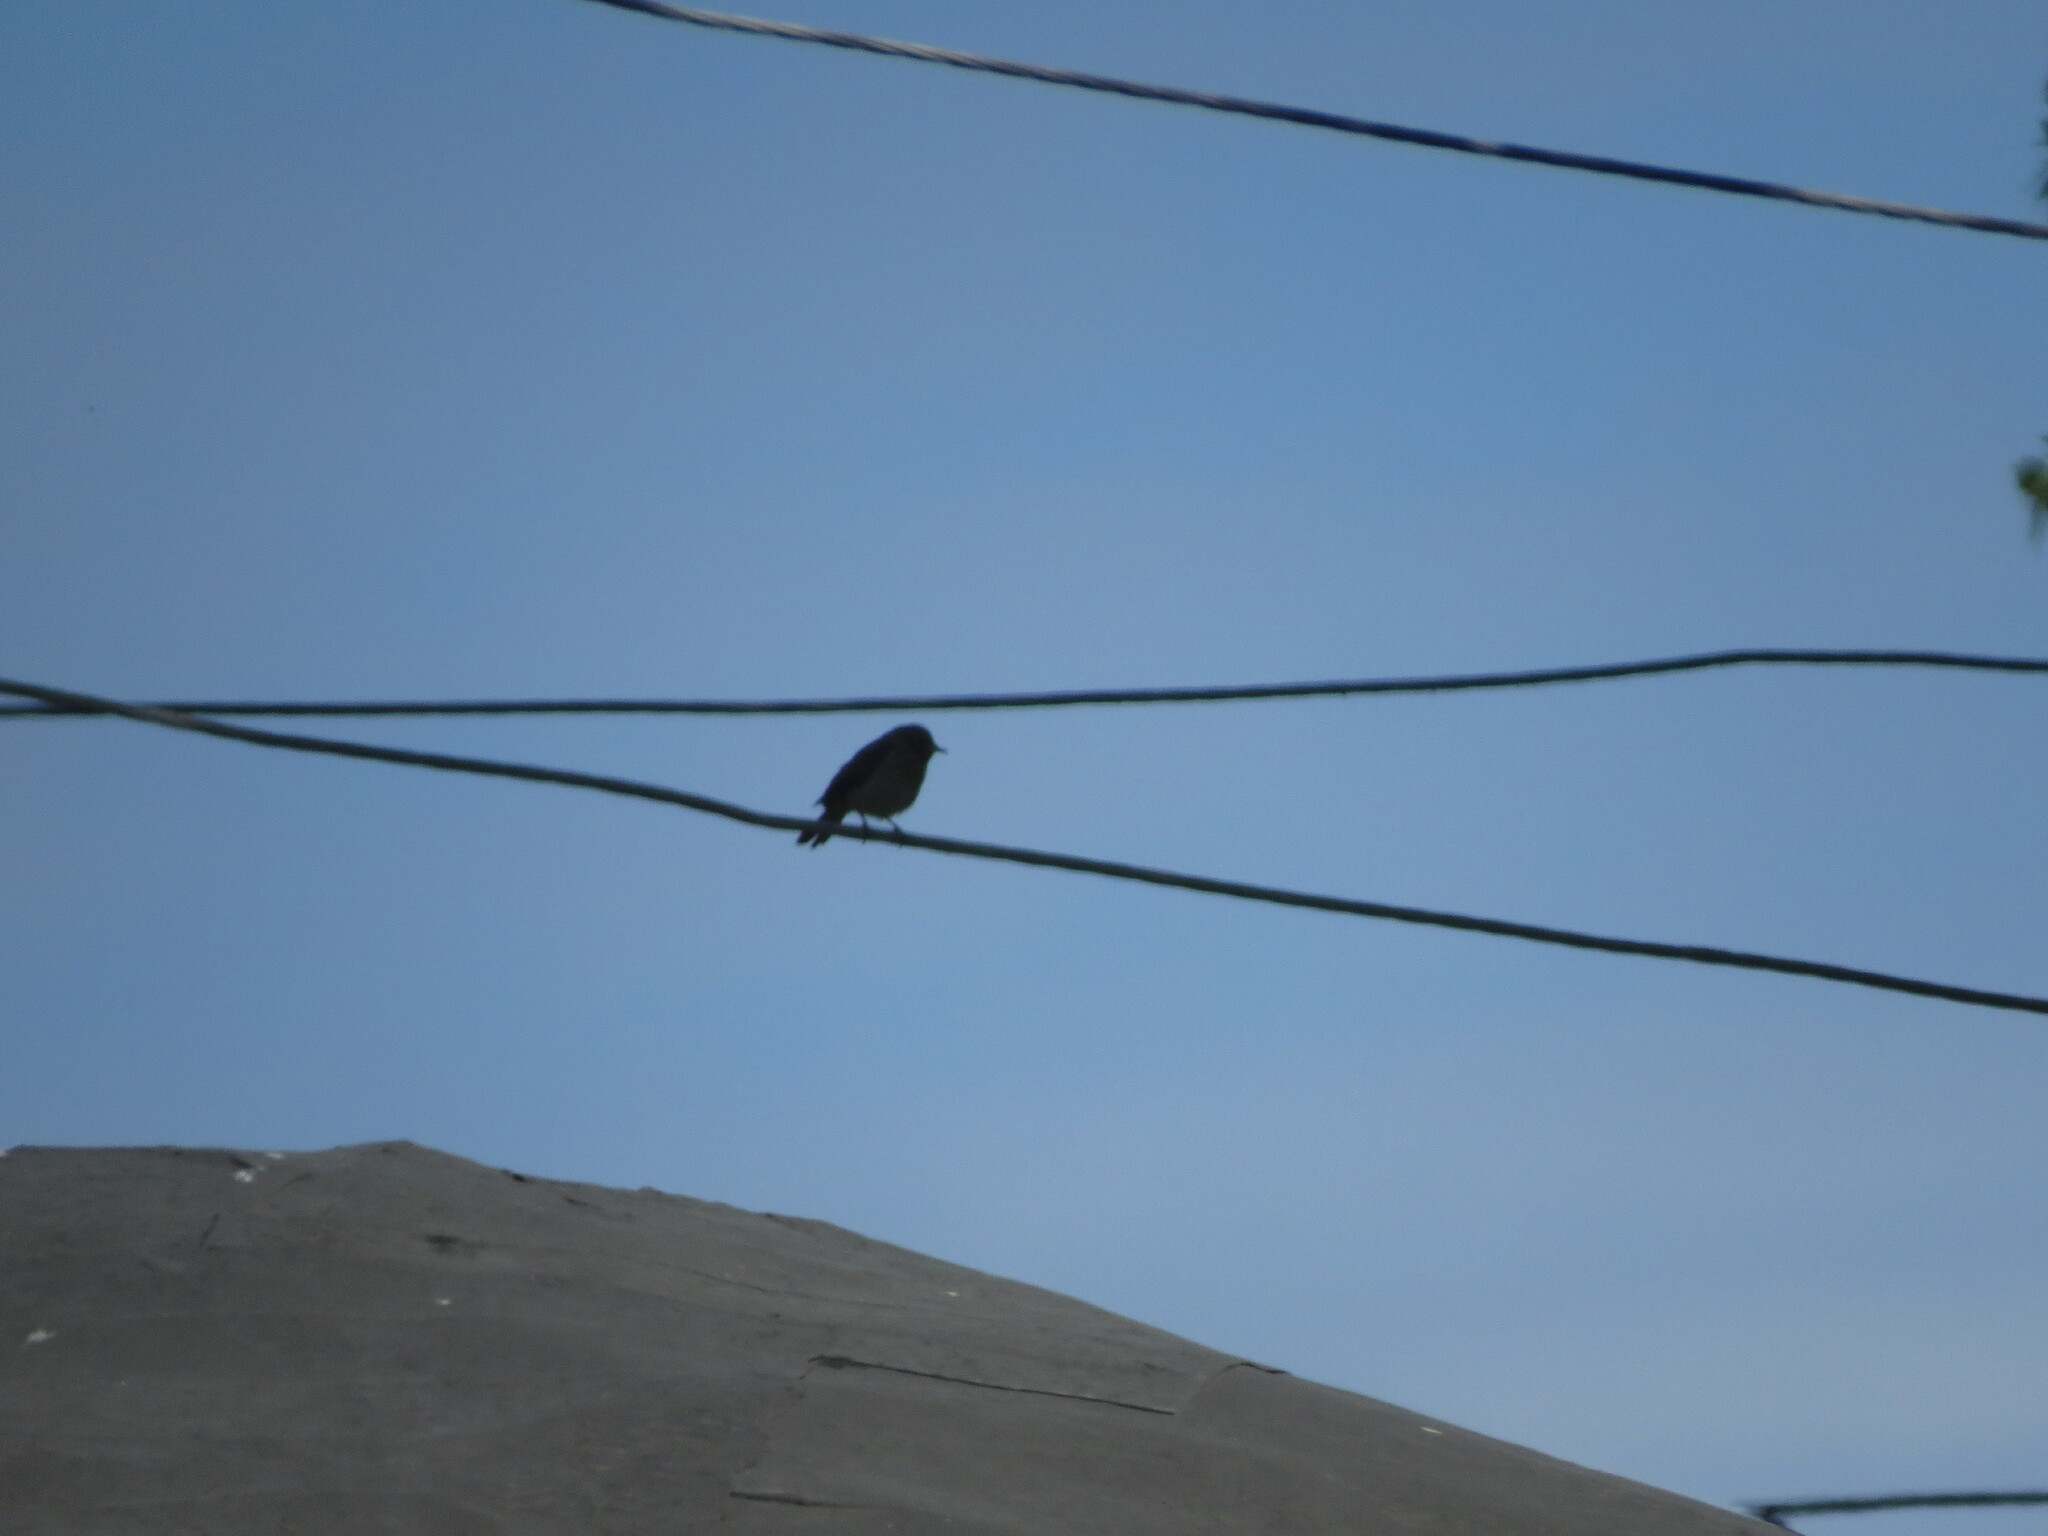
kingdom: Animalia
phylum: Chordata
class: Aves
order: Passeriformes
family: Muscicapidae
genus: Phoenicurus
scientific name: Phoenicurus phoenicurus
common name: Common redstart
